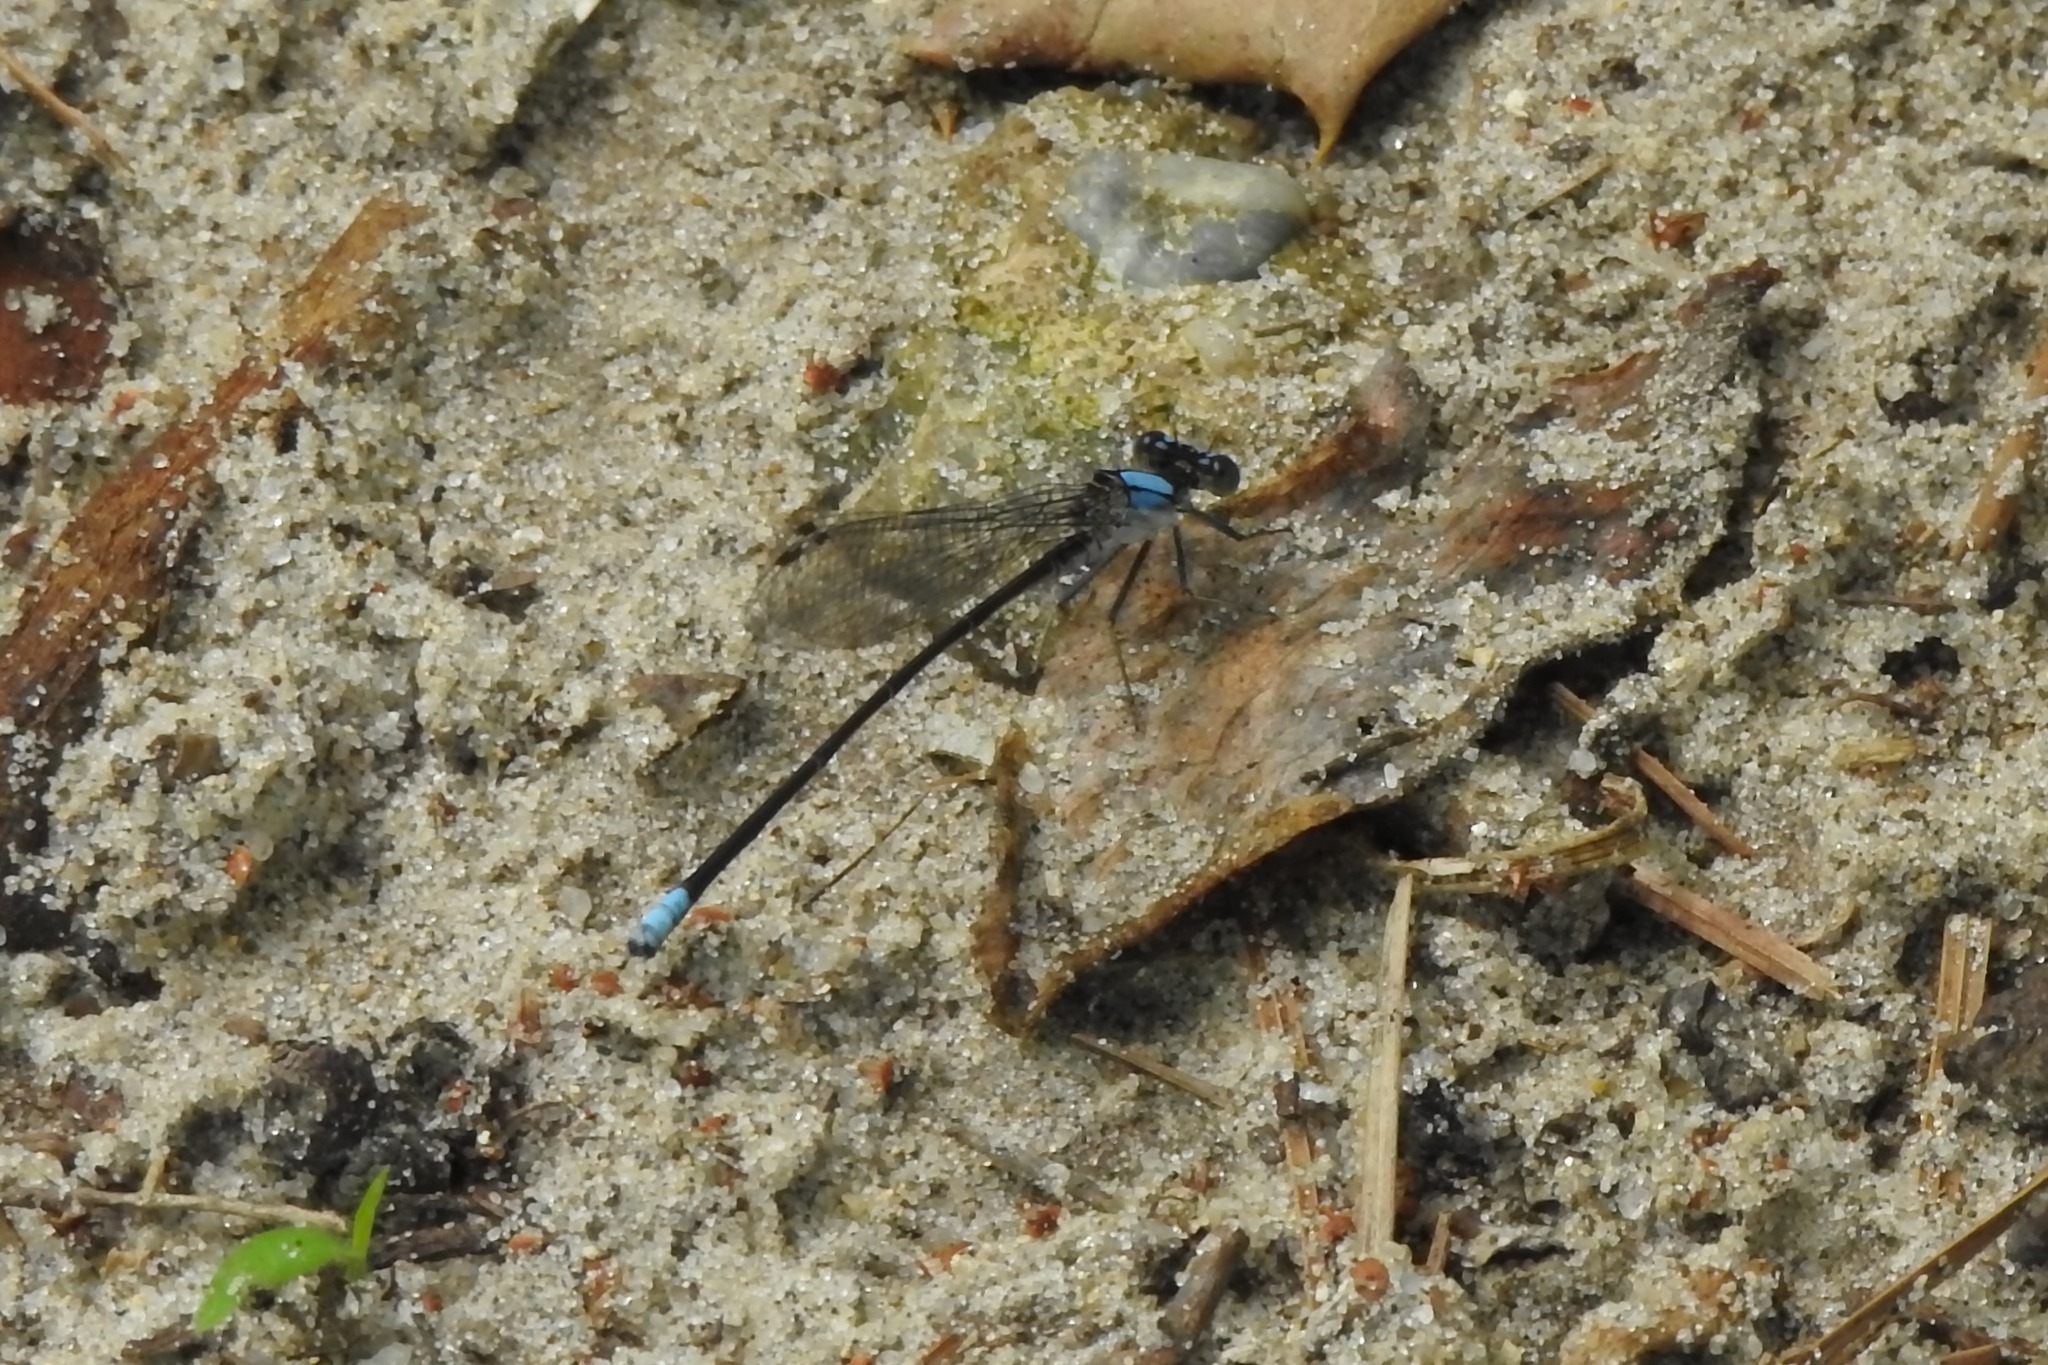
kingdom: Animalia
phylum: Arthropoda
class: Insecta
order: Odonata
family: Coenagrionidae
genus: Argia
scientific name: Argia apicalis
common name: Blue-fronted dancer
